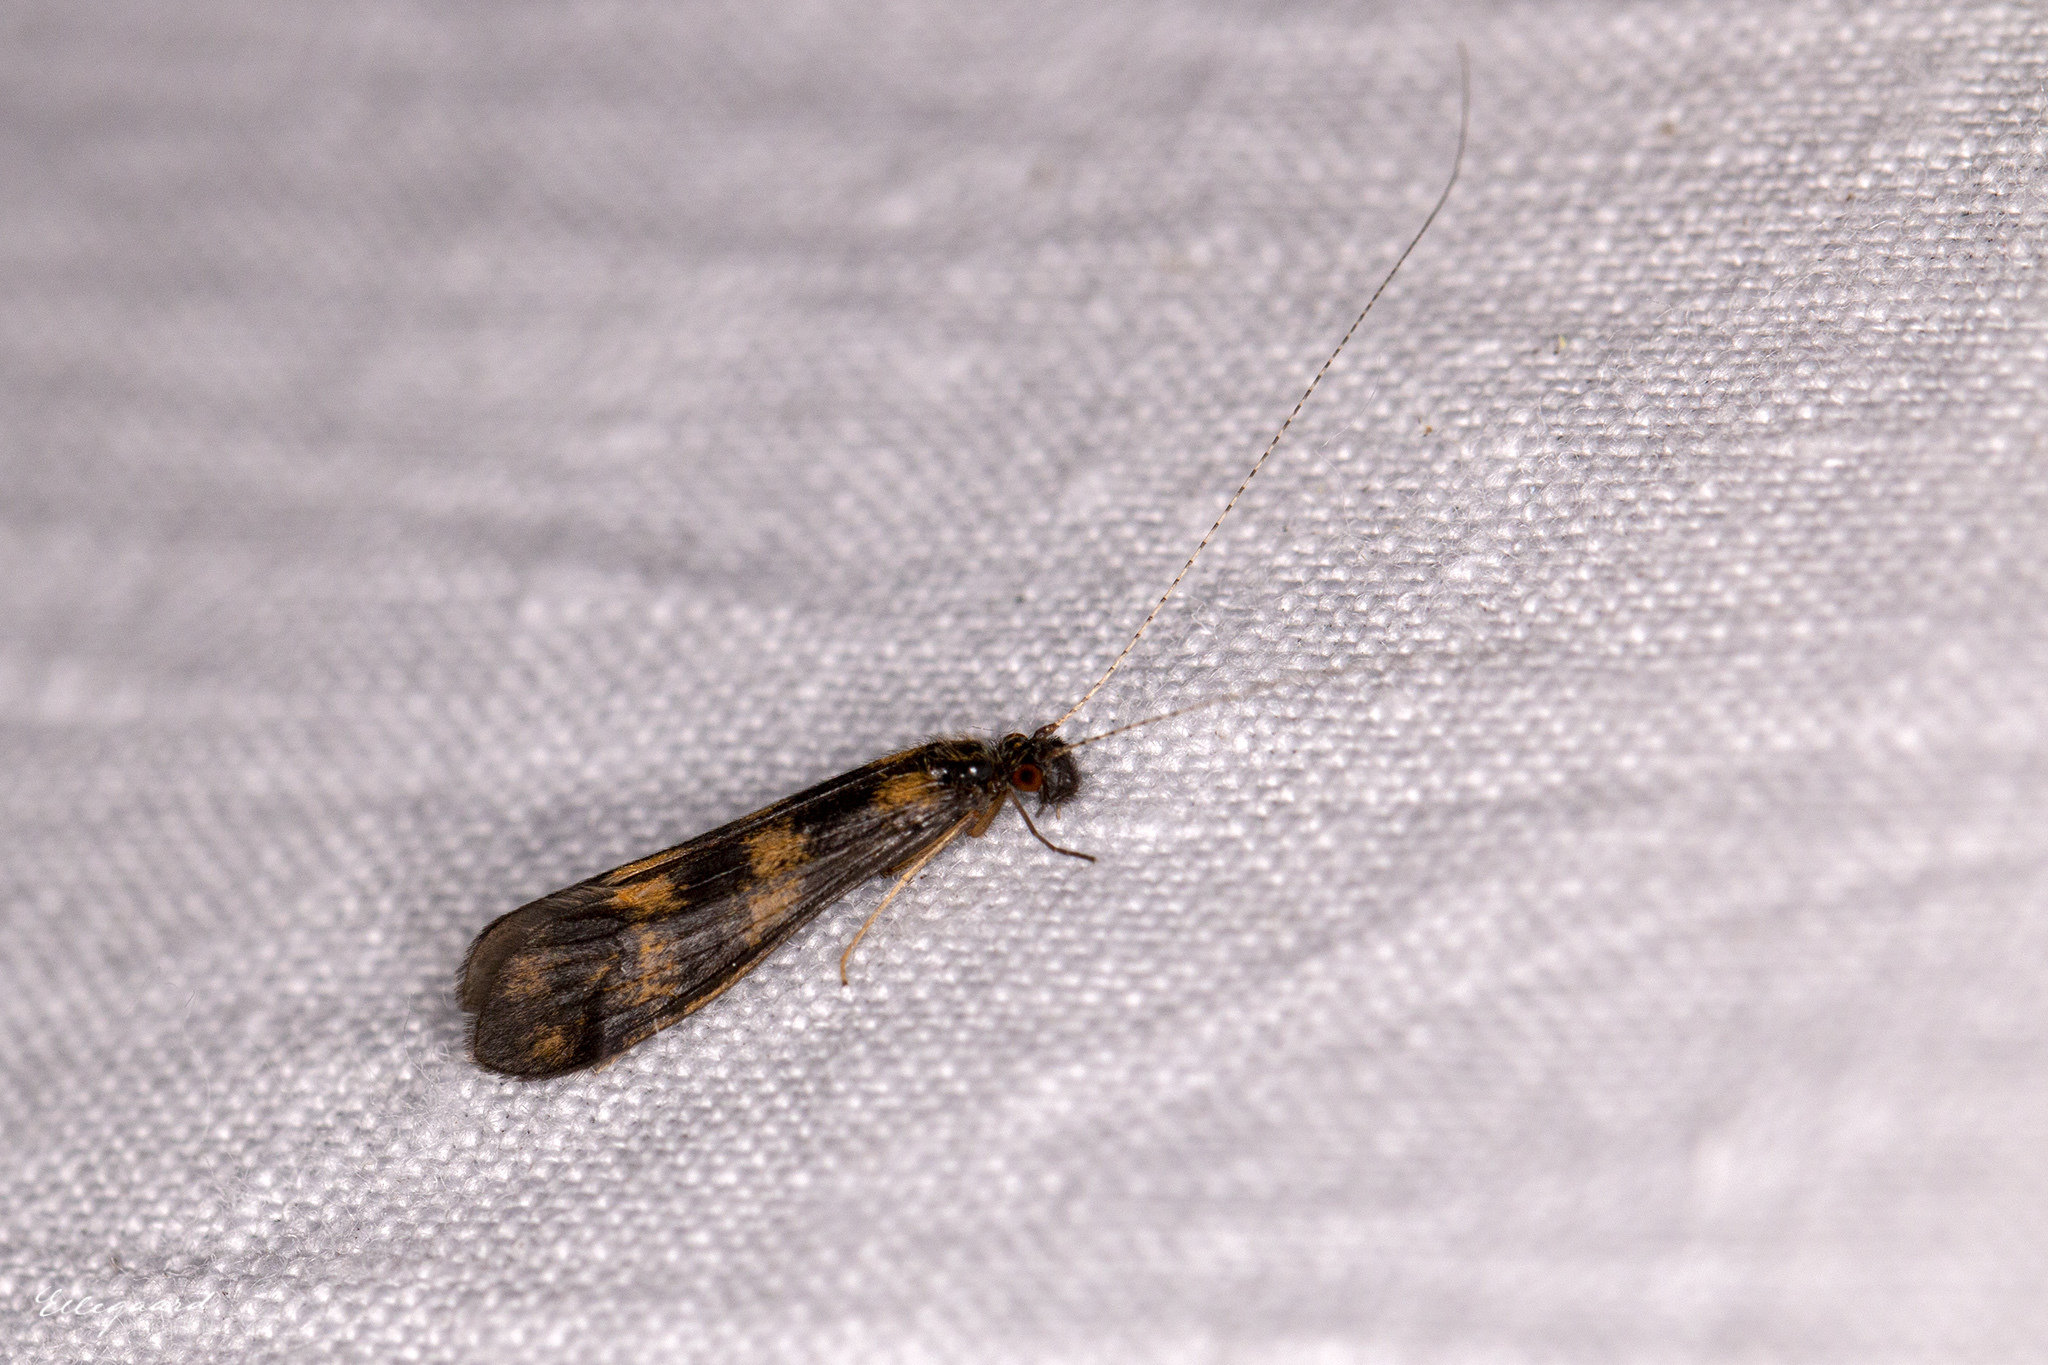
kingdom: Animalia
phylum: Arthropoda
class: Insecta
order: Trichoptera
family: Leptoceridae
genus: Mystacides
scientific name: Mystacides longicornis
